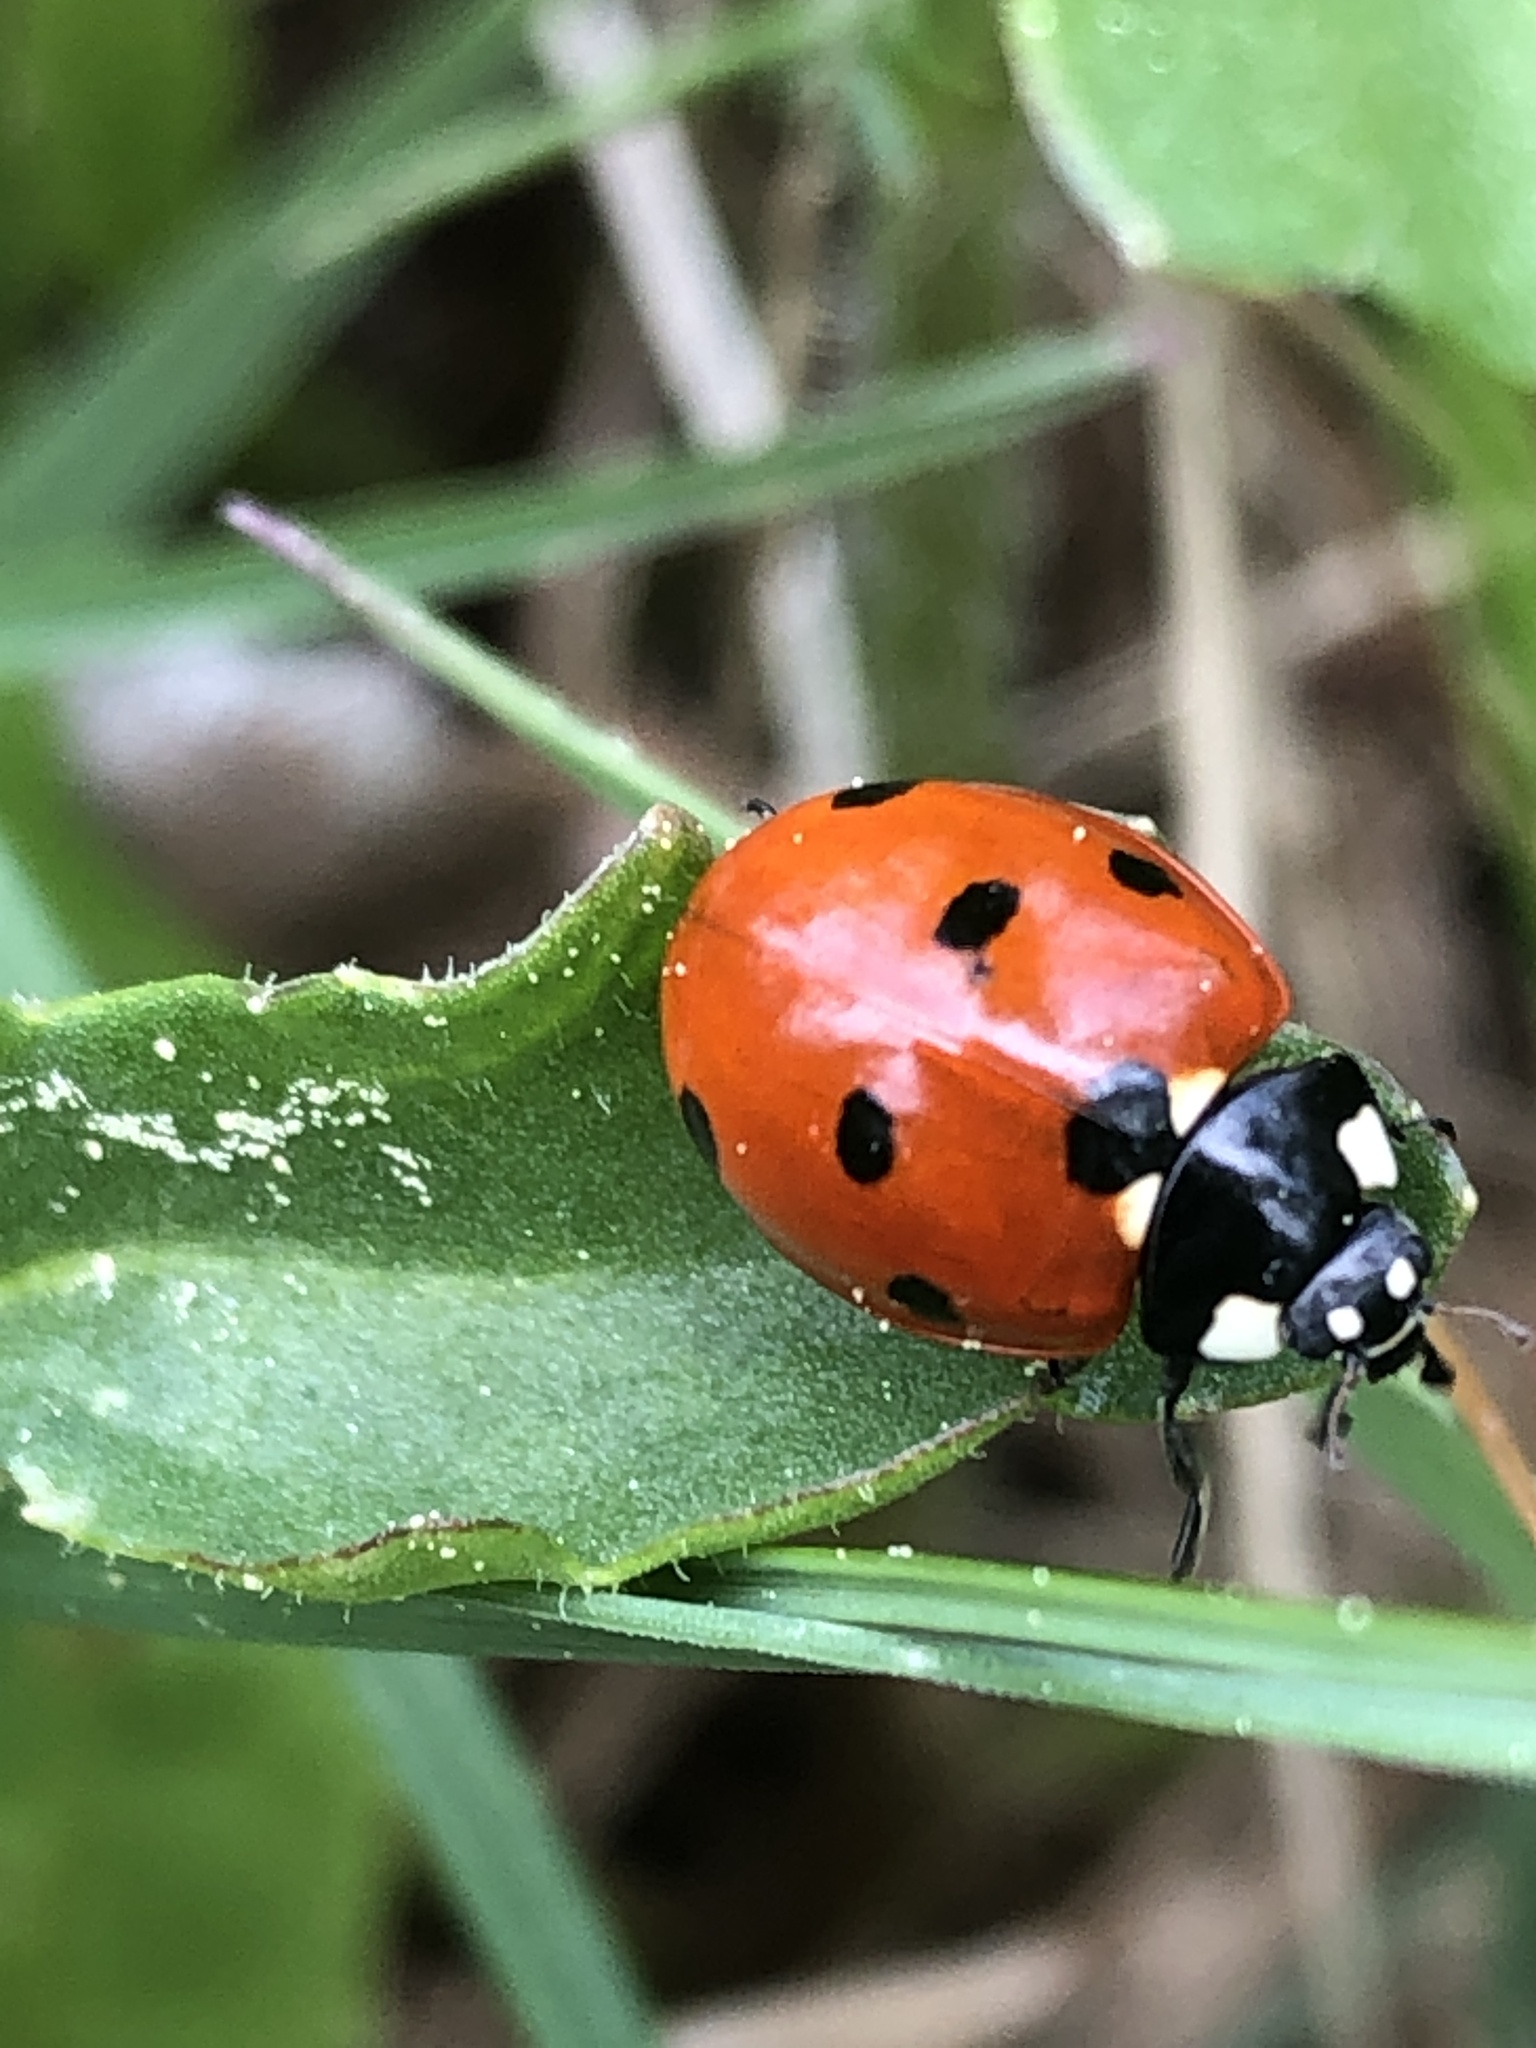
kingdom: Animalia
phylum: Arthropoda
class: Insecta
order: Coleoptera
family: Coccinellidae
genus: Coccinella
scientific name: Coccinella septempunctata
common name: Sevenspotted lady beetle
